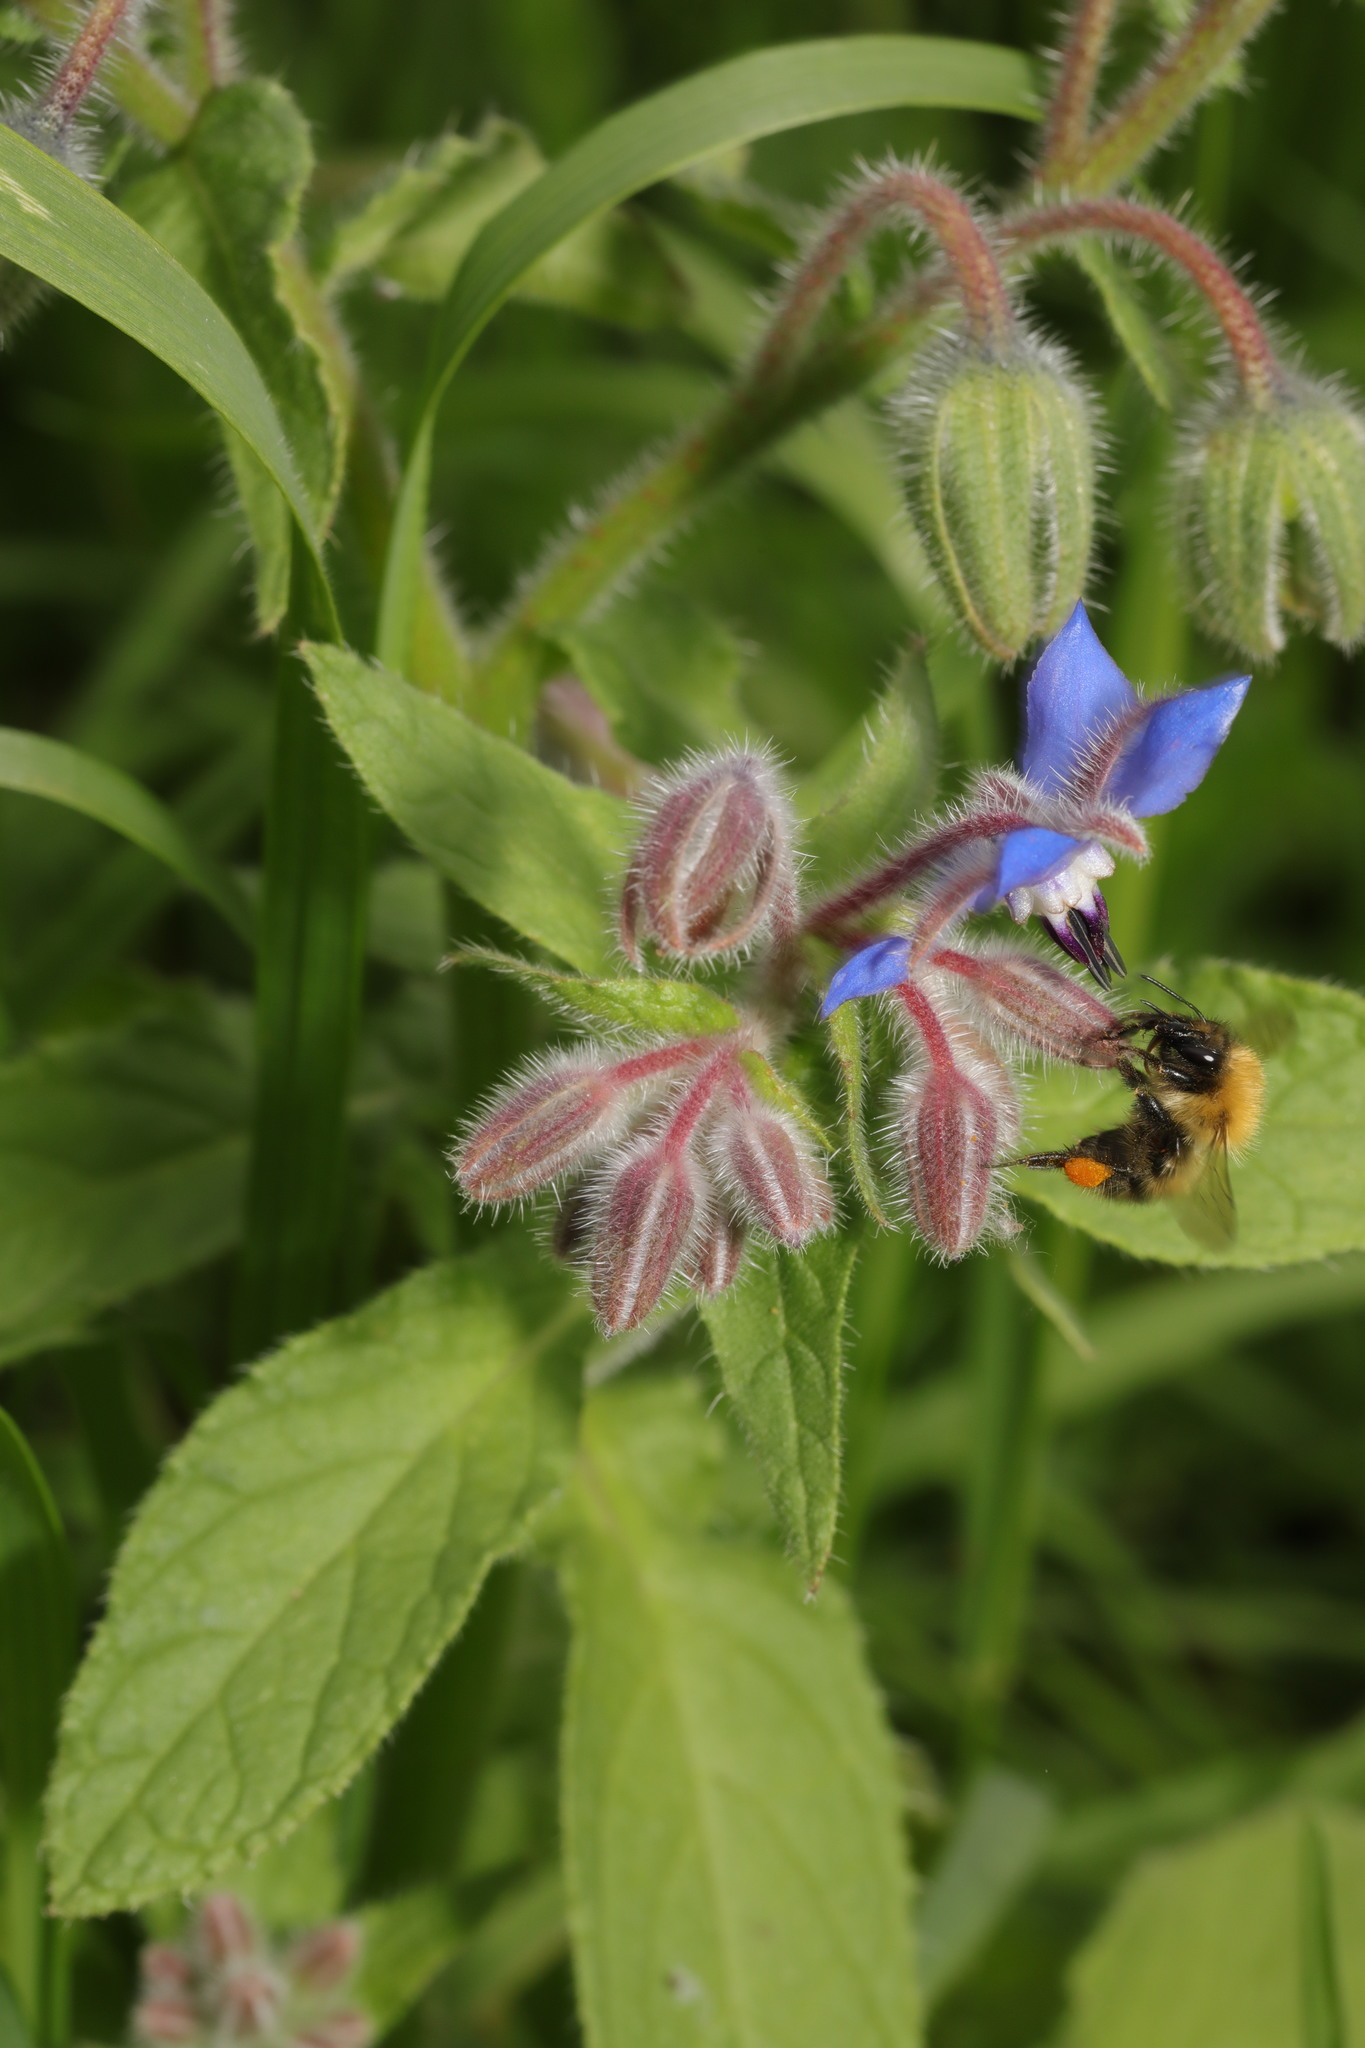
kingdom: Plantae
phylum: Tracheophyta
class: Magnoliopsida
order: Boraginales
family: Boraginaceae
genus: Borago
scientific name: Borago officinalis
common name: Borage
